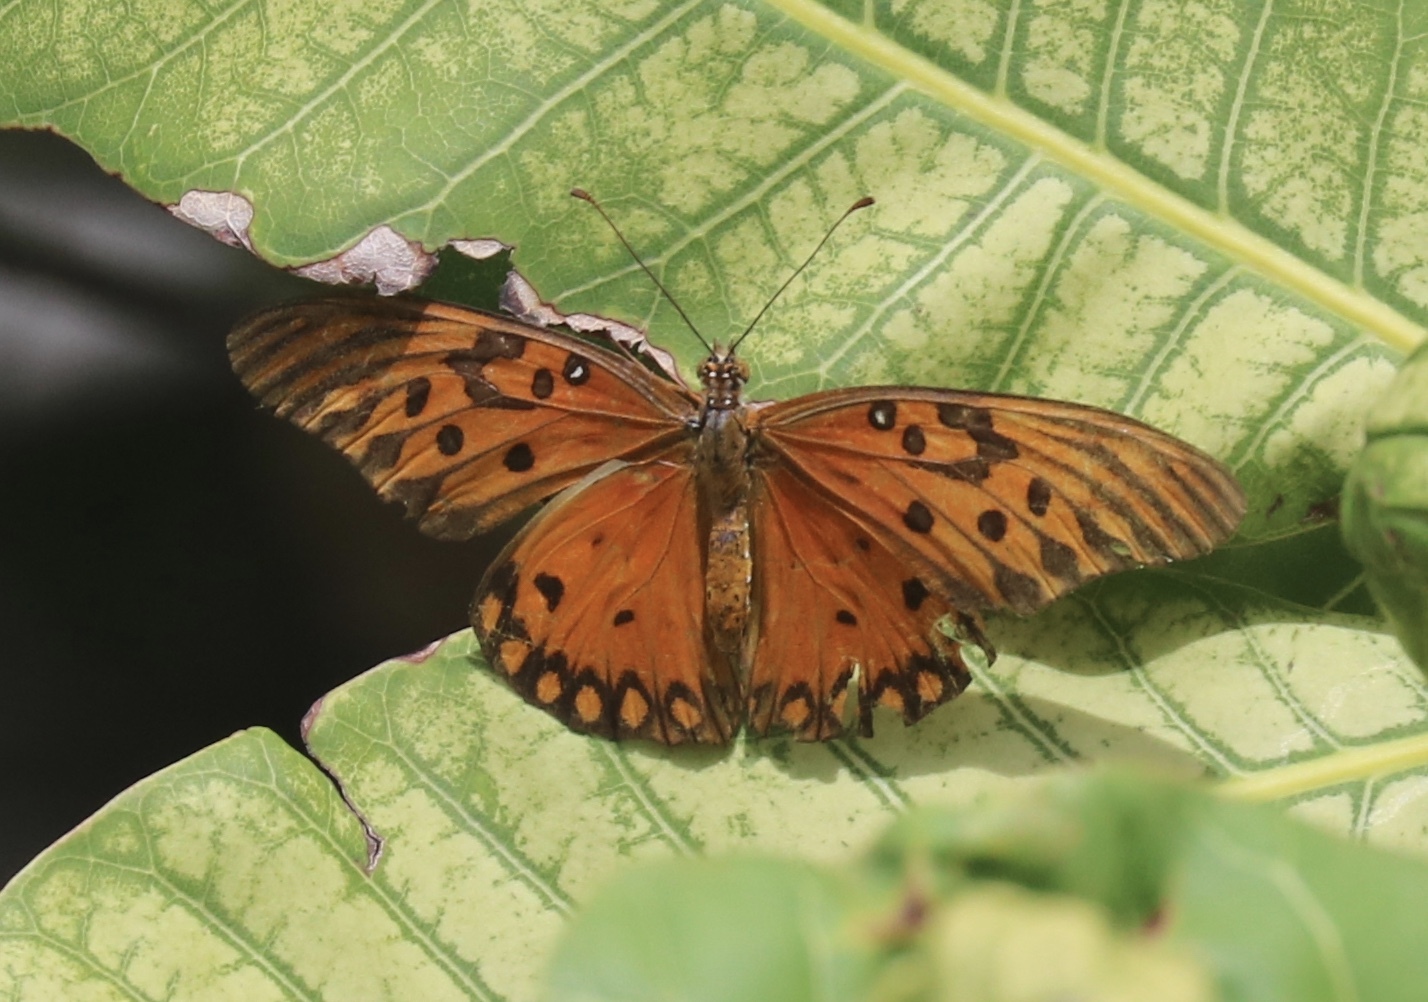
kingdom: Animalia
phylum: Arthropoda
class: Insecta
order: Lepidoptera
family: Nymphalidae
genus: Dione
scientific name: Dione vanillae
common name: Gulf fritillary
